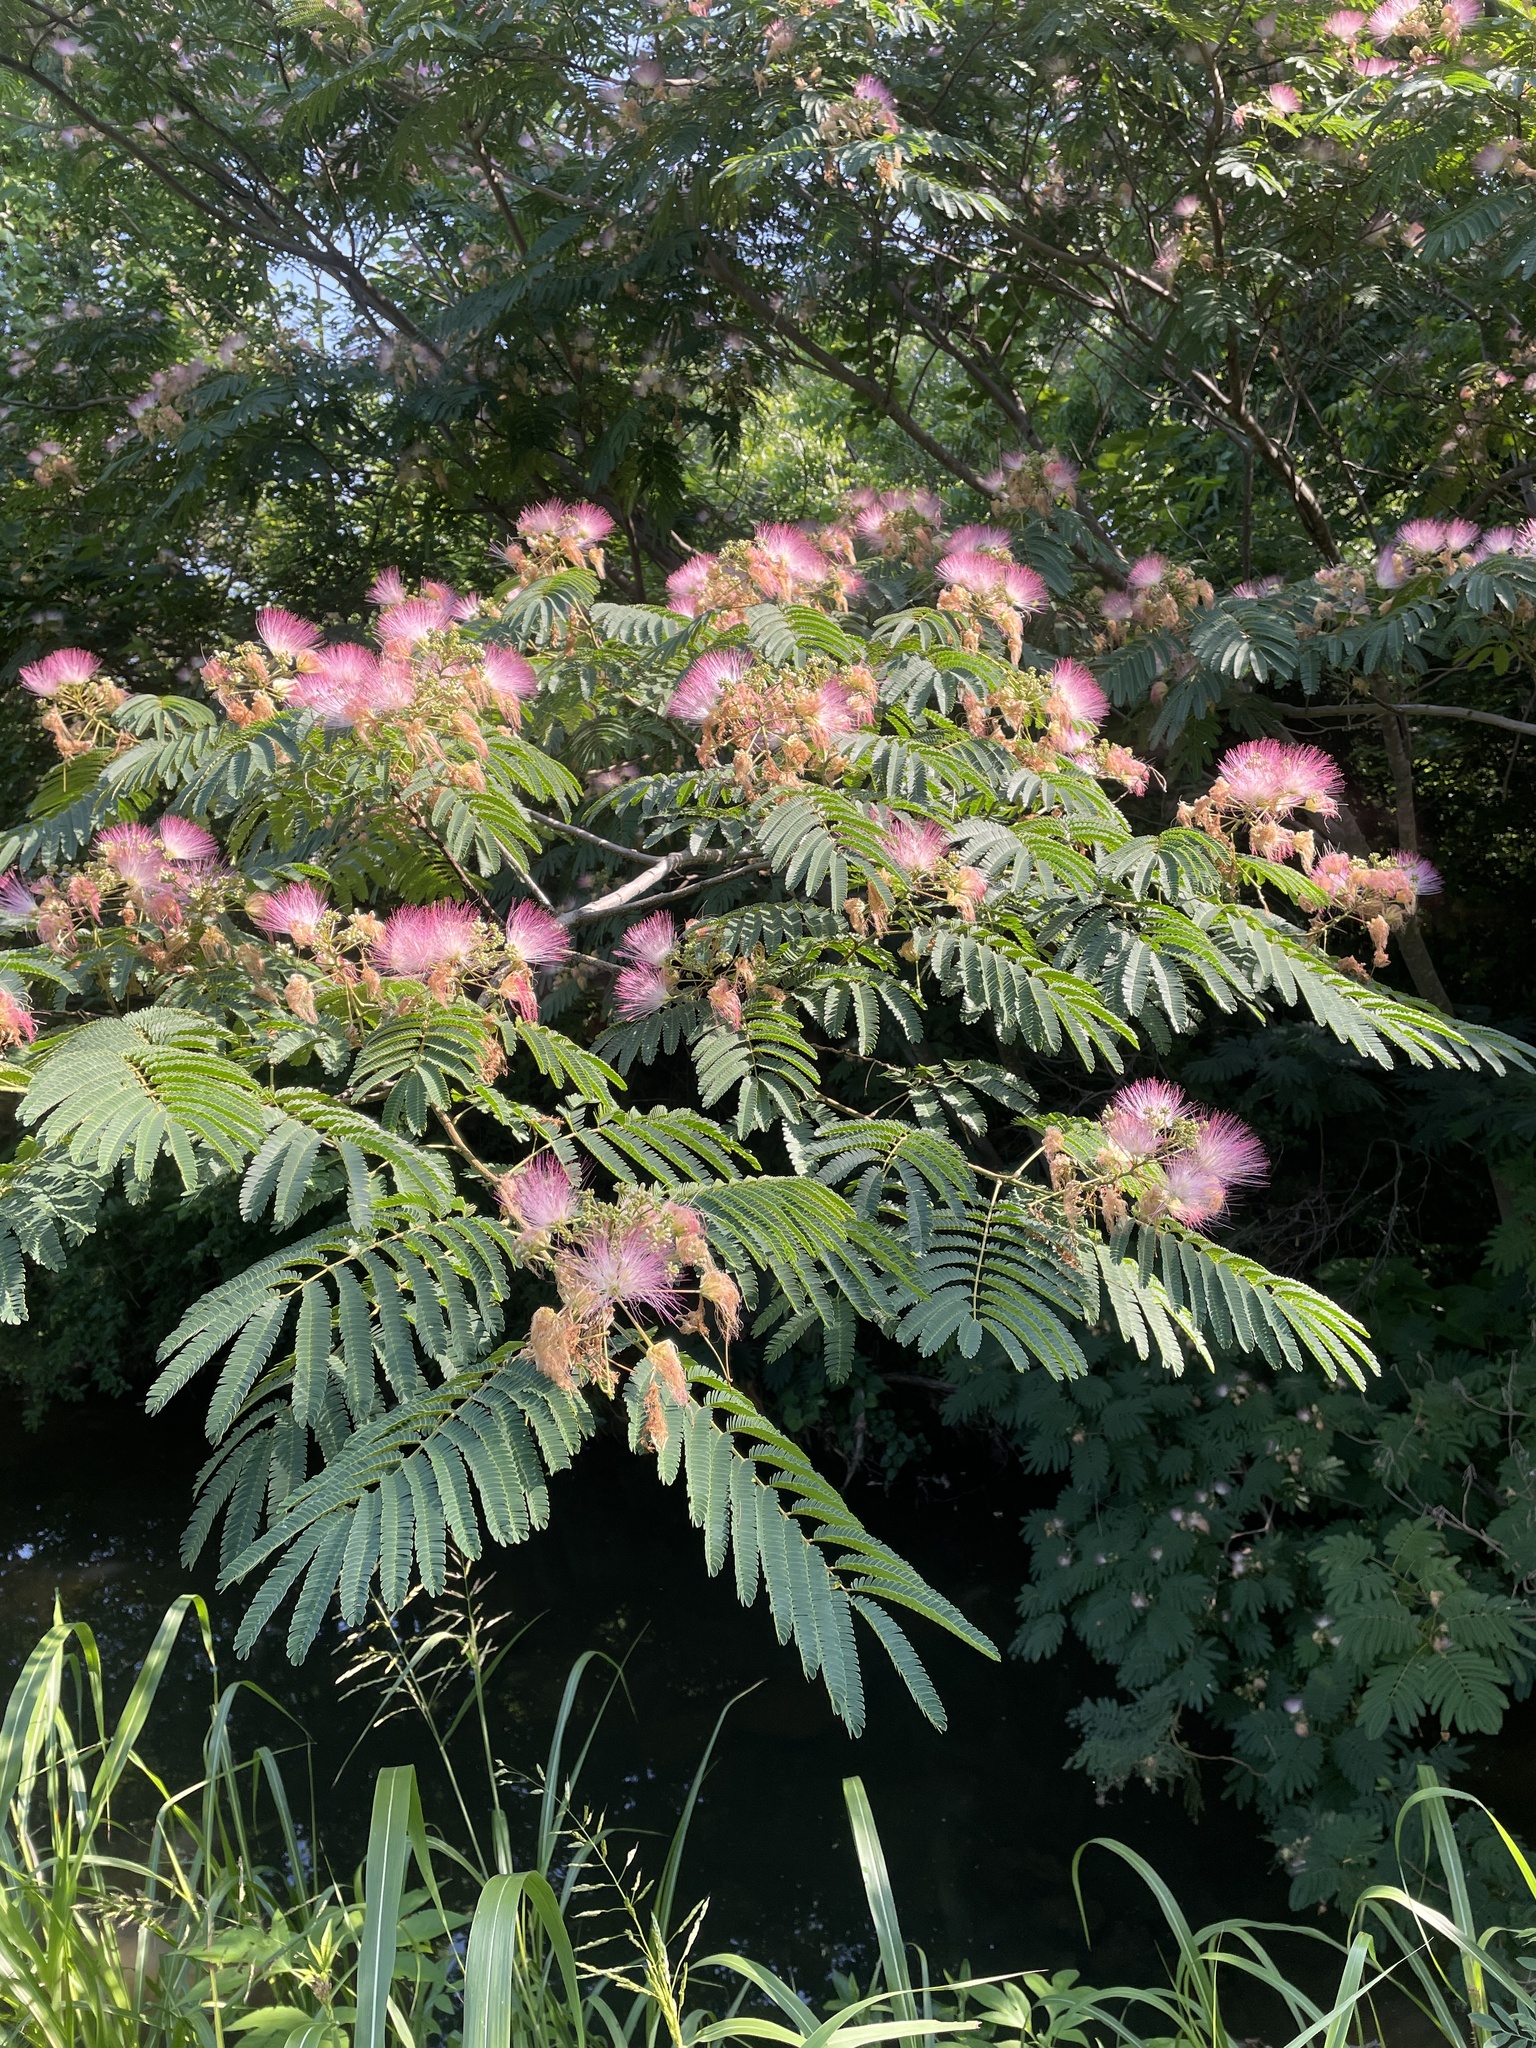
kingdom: Plantae
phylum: Tracheophyta
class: Magnoliopsida
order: Fabales
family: Fabaceae
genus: Albizia
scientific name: Albizia julibrissin
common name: Silktree
